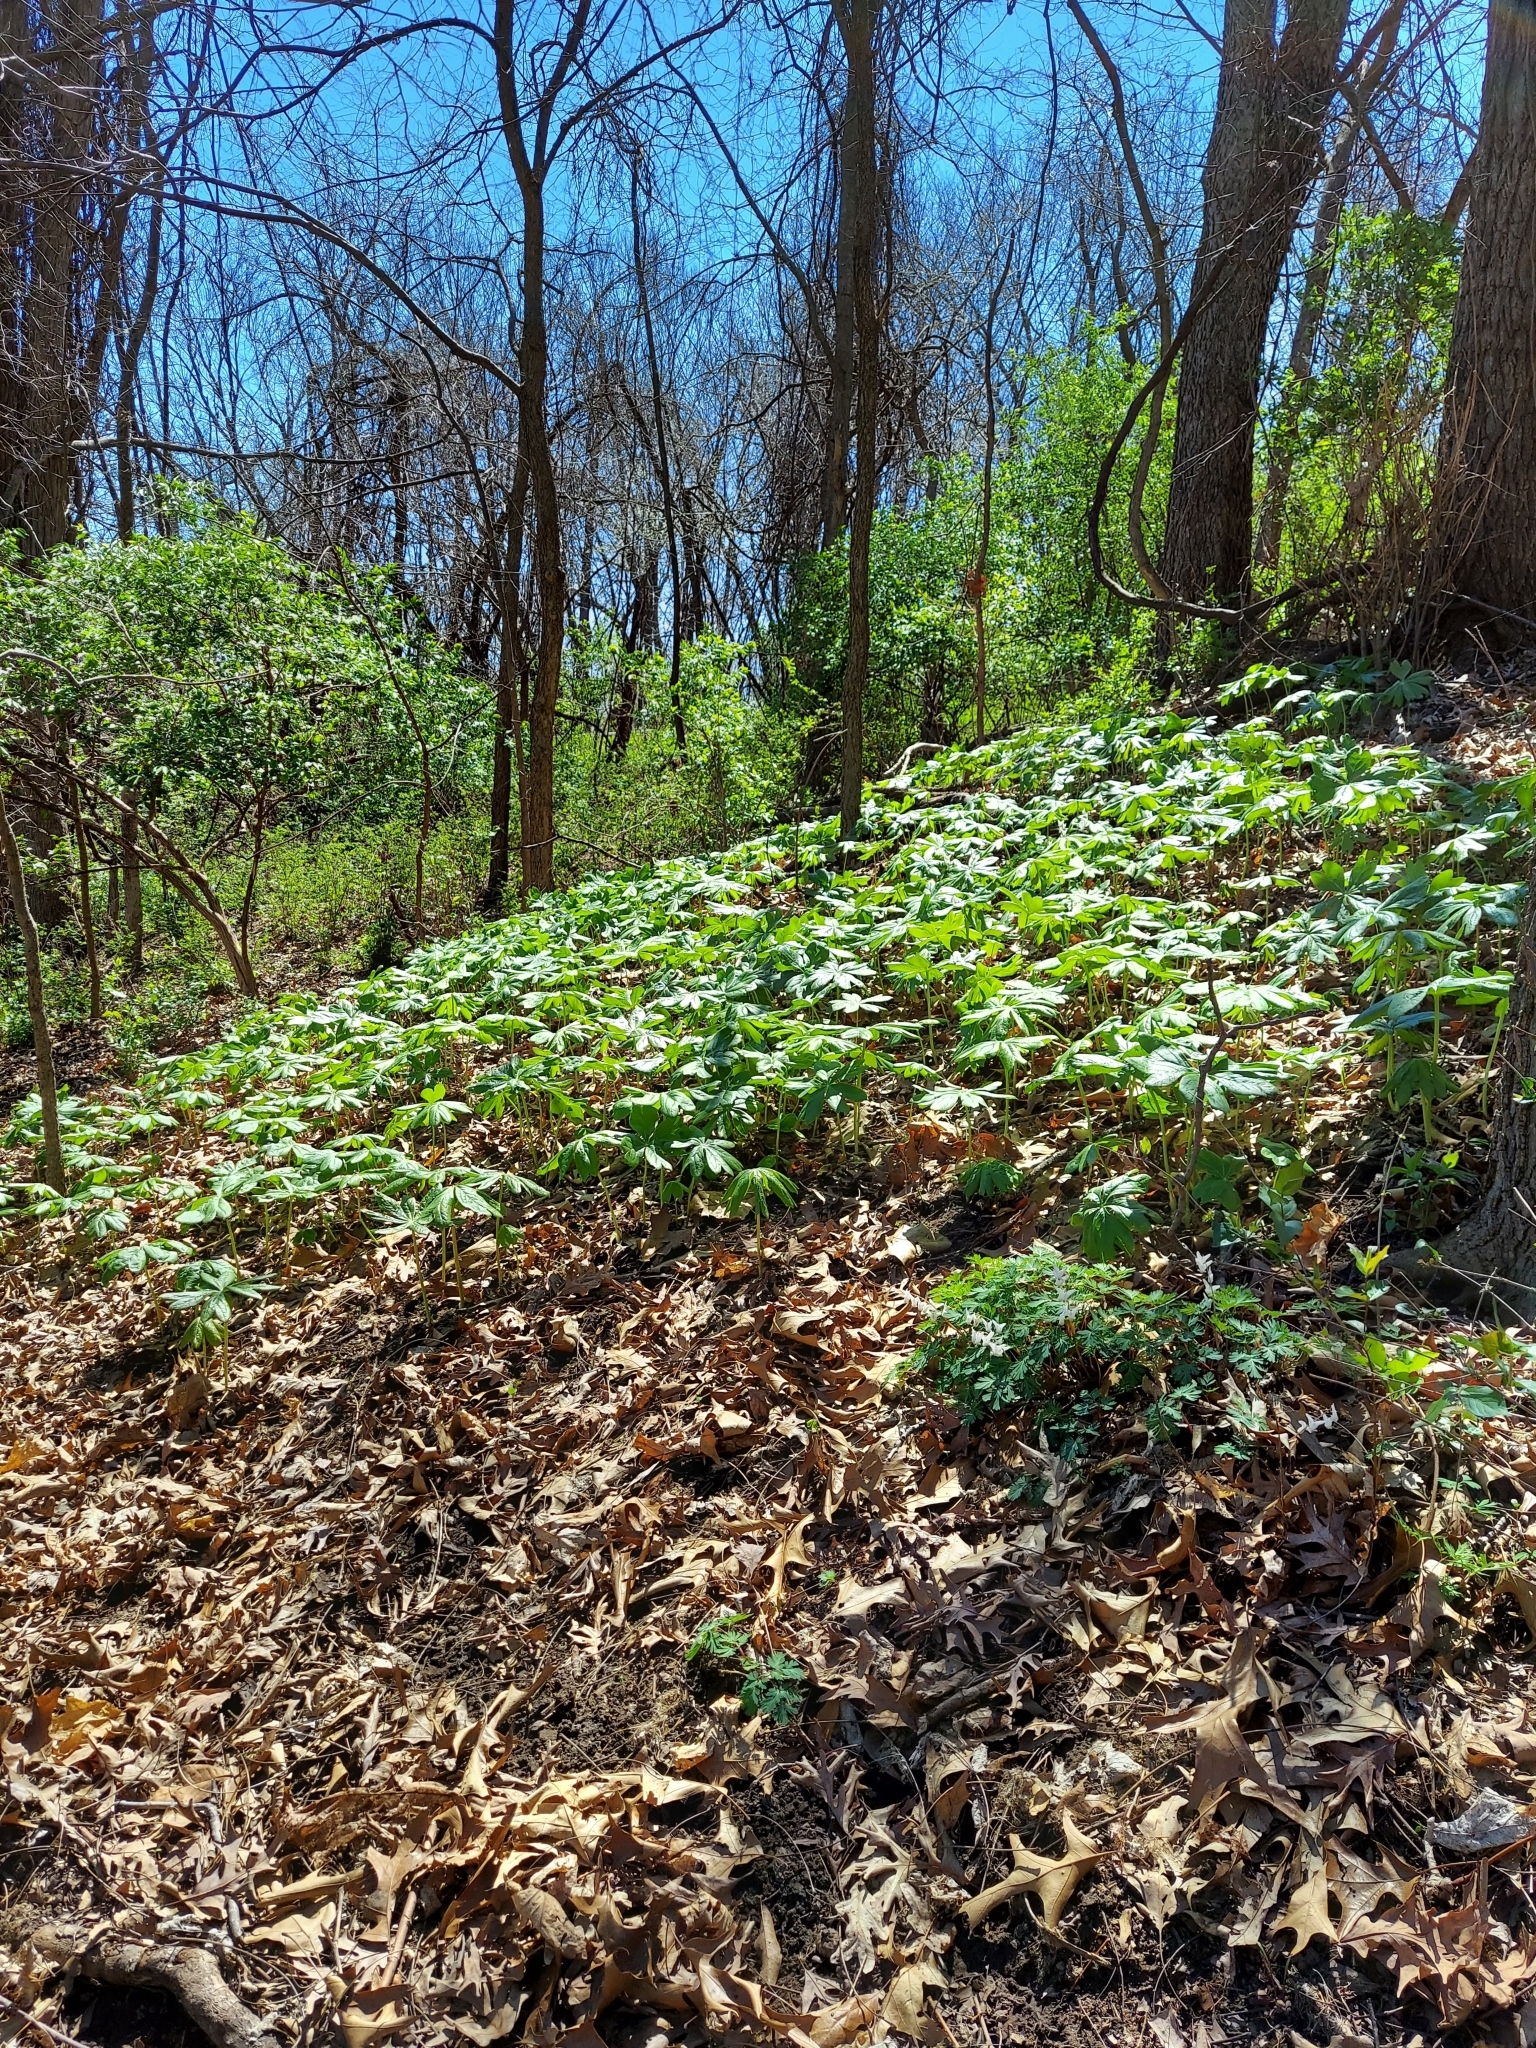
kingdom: Plantae
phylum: Tracheophyta
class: Magnoliopsida
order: Ranunculales
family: Berberidaceae
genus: Podophyllum
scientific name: Podophyllum peltatum
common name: Wild mandrake
